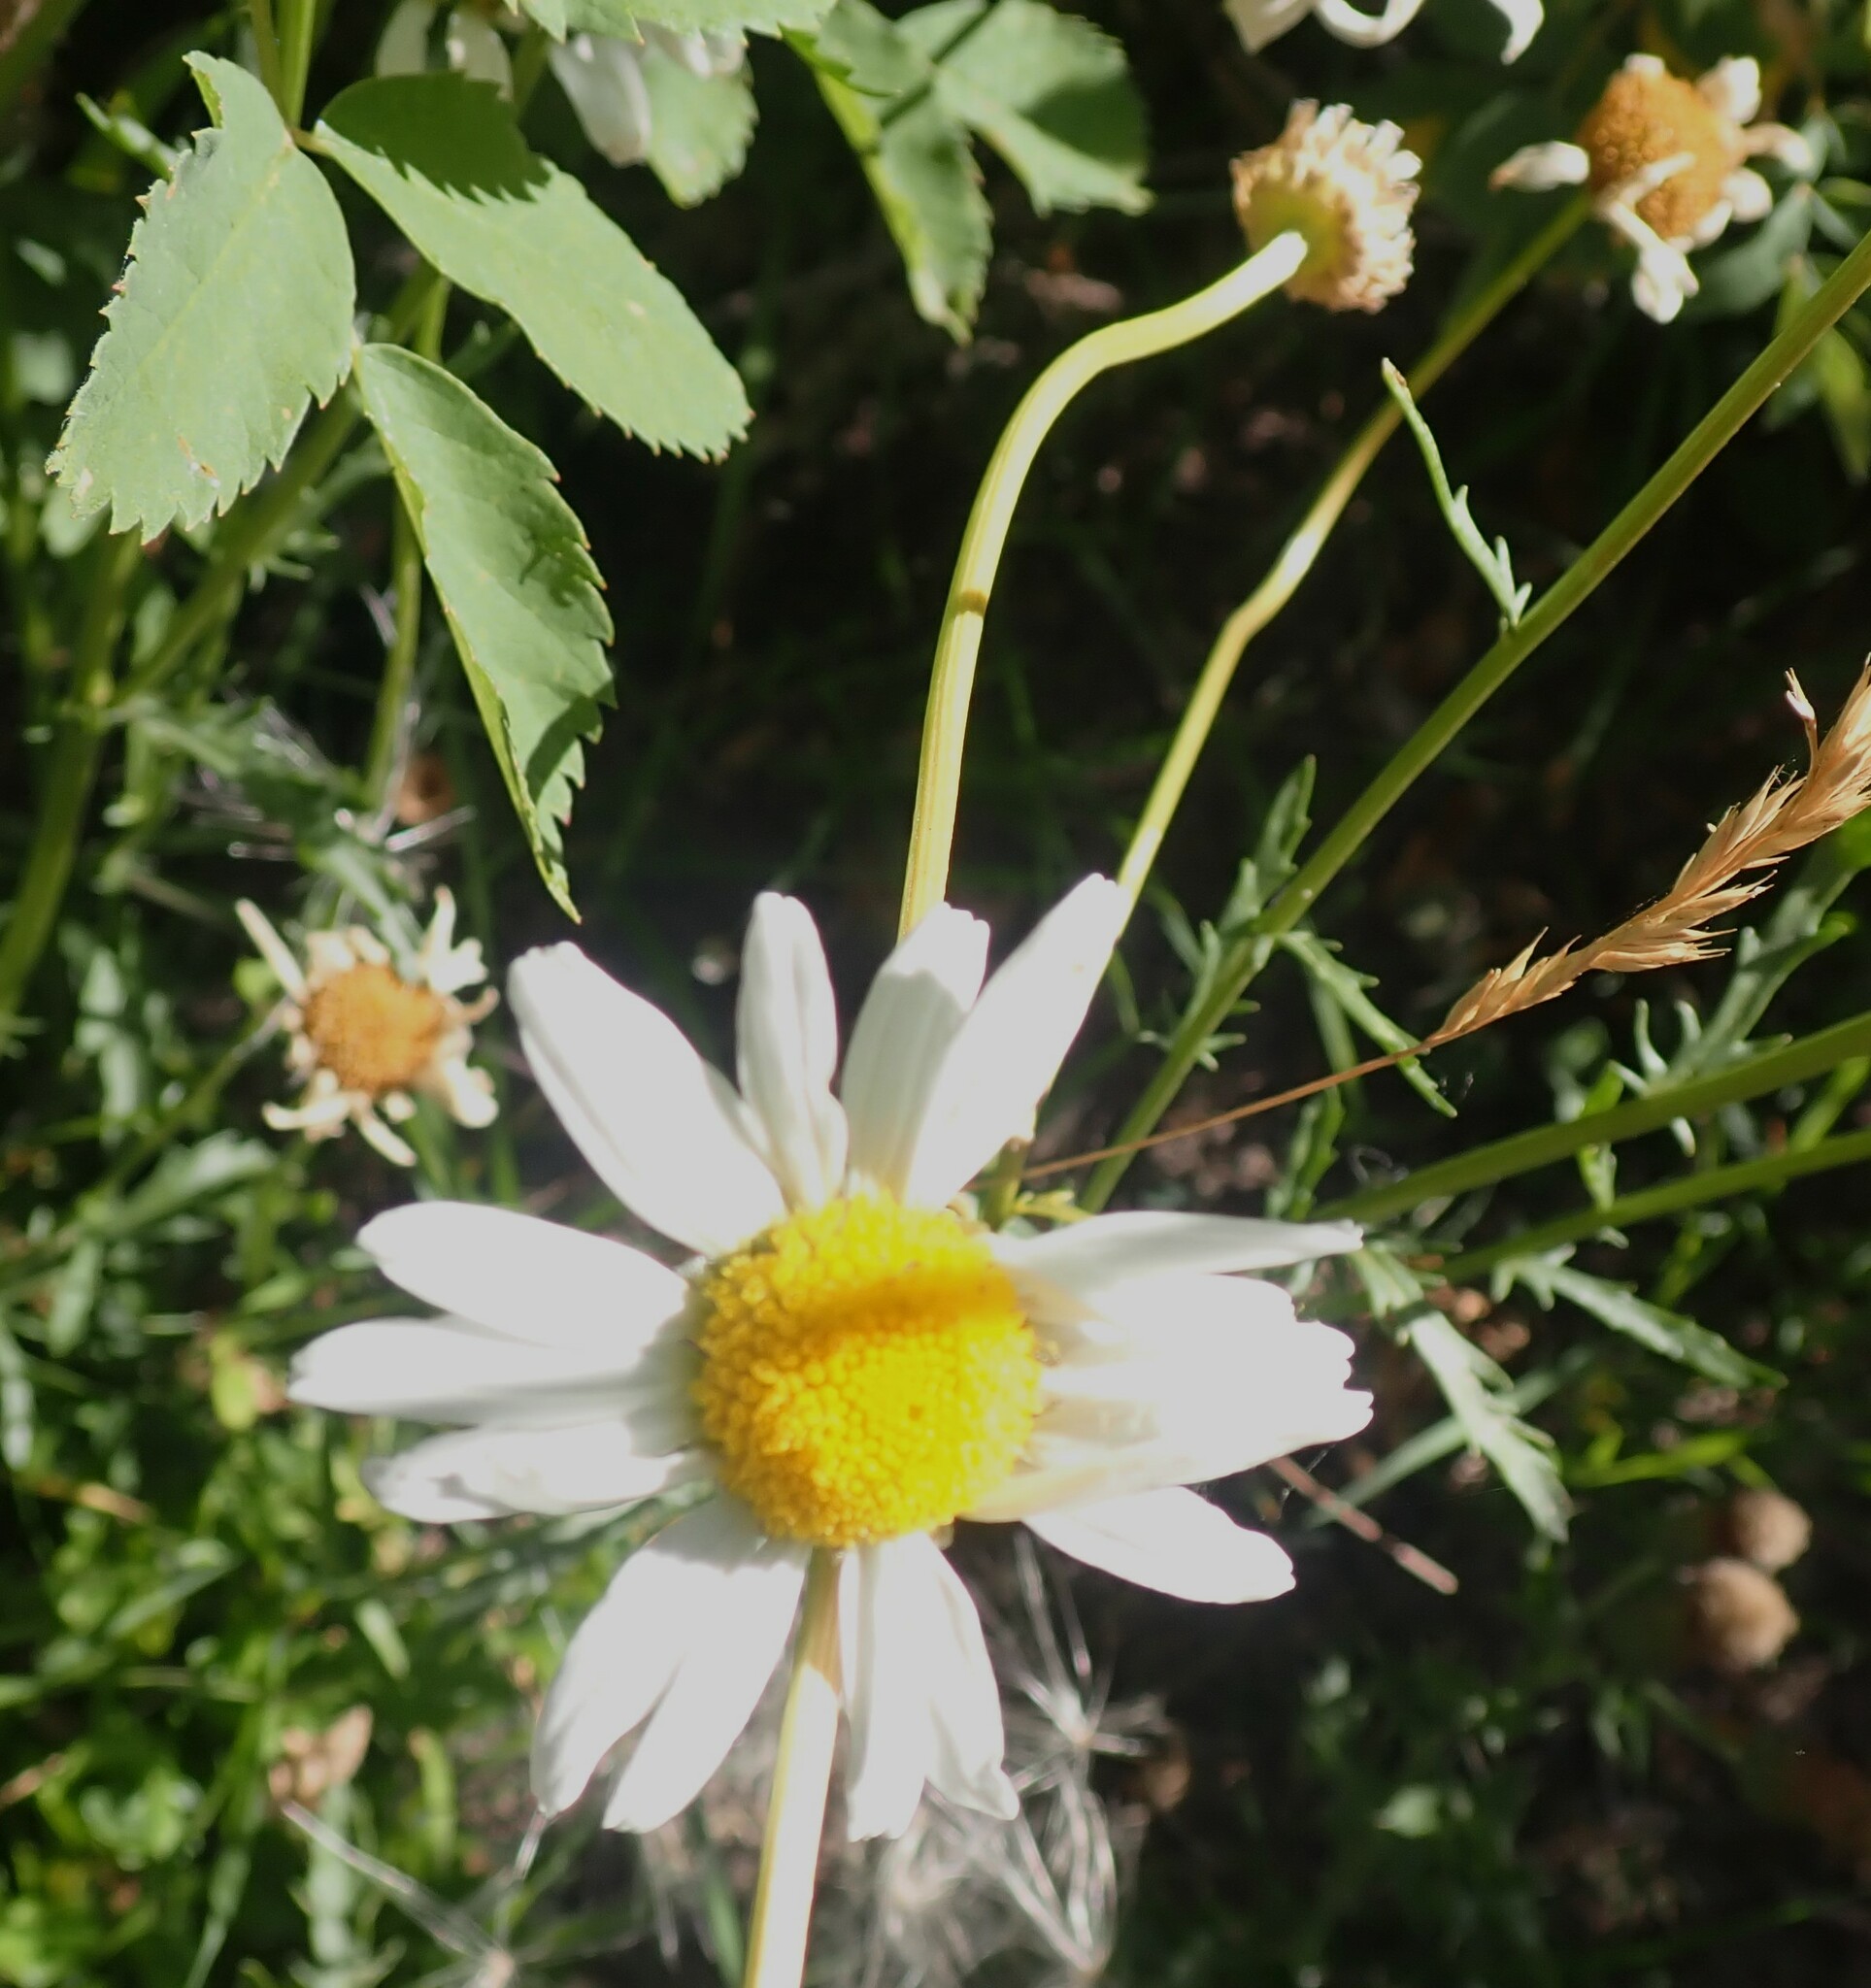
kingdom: Plantae
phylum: Tracheophyta
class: Magnoliopsida
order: Asterales
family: Asteraceae
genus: Leucanthemum
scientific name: Leucanthemum vulgare
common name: Oxeye daisy
